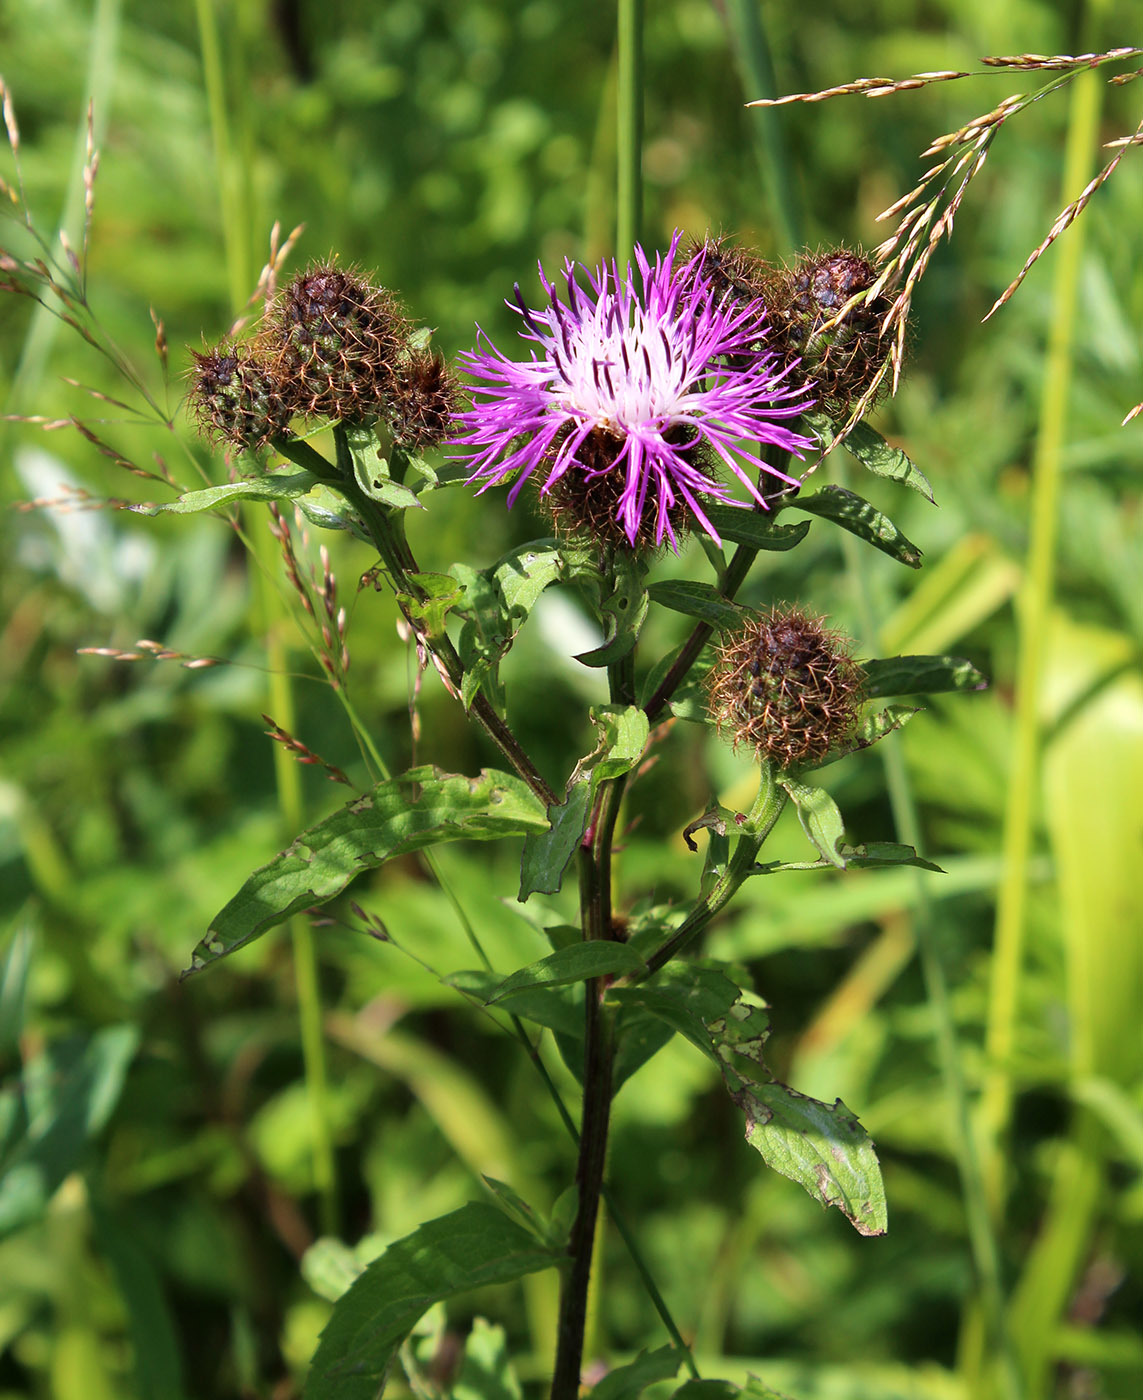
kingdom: Plantae
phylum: Tracheophyta
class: Magnoliopsida
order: Asterales
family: Asteraceae
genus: Centaurea
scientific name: Centaurea pseudophrygia
